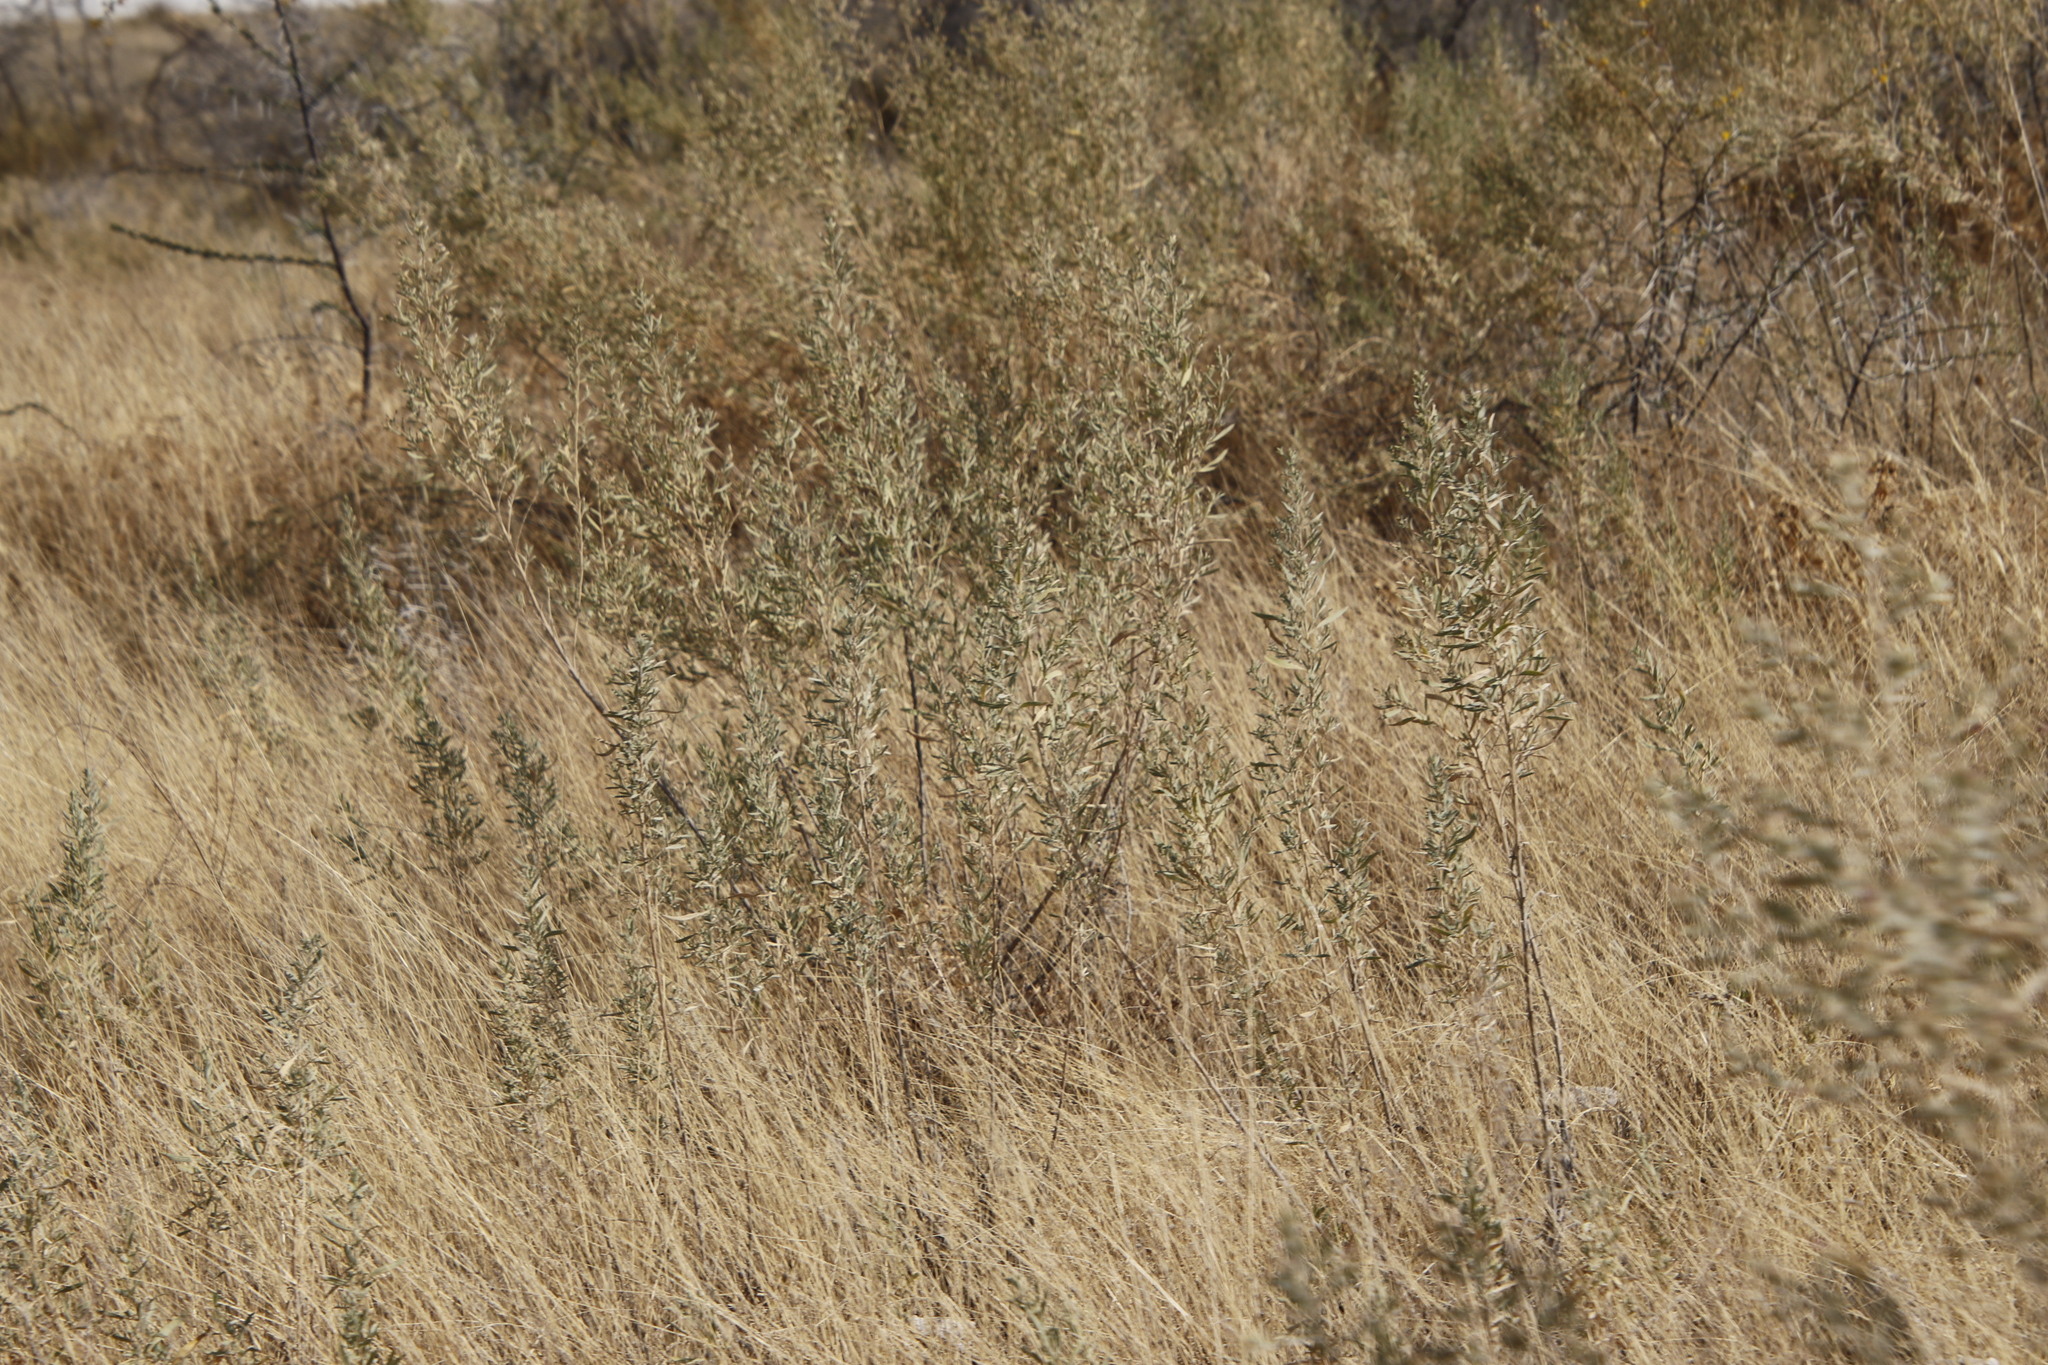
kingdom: Plantae
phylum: Tracheophyta
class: Magnoliopsida
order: Asterales
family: Asteraceae
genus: Pechuel-loeschea
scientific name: Pechuel-loeschea leubnitziae
